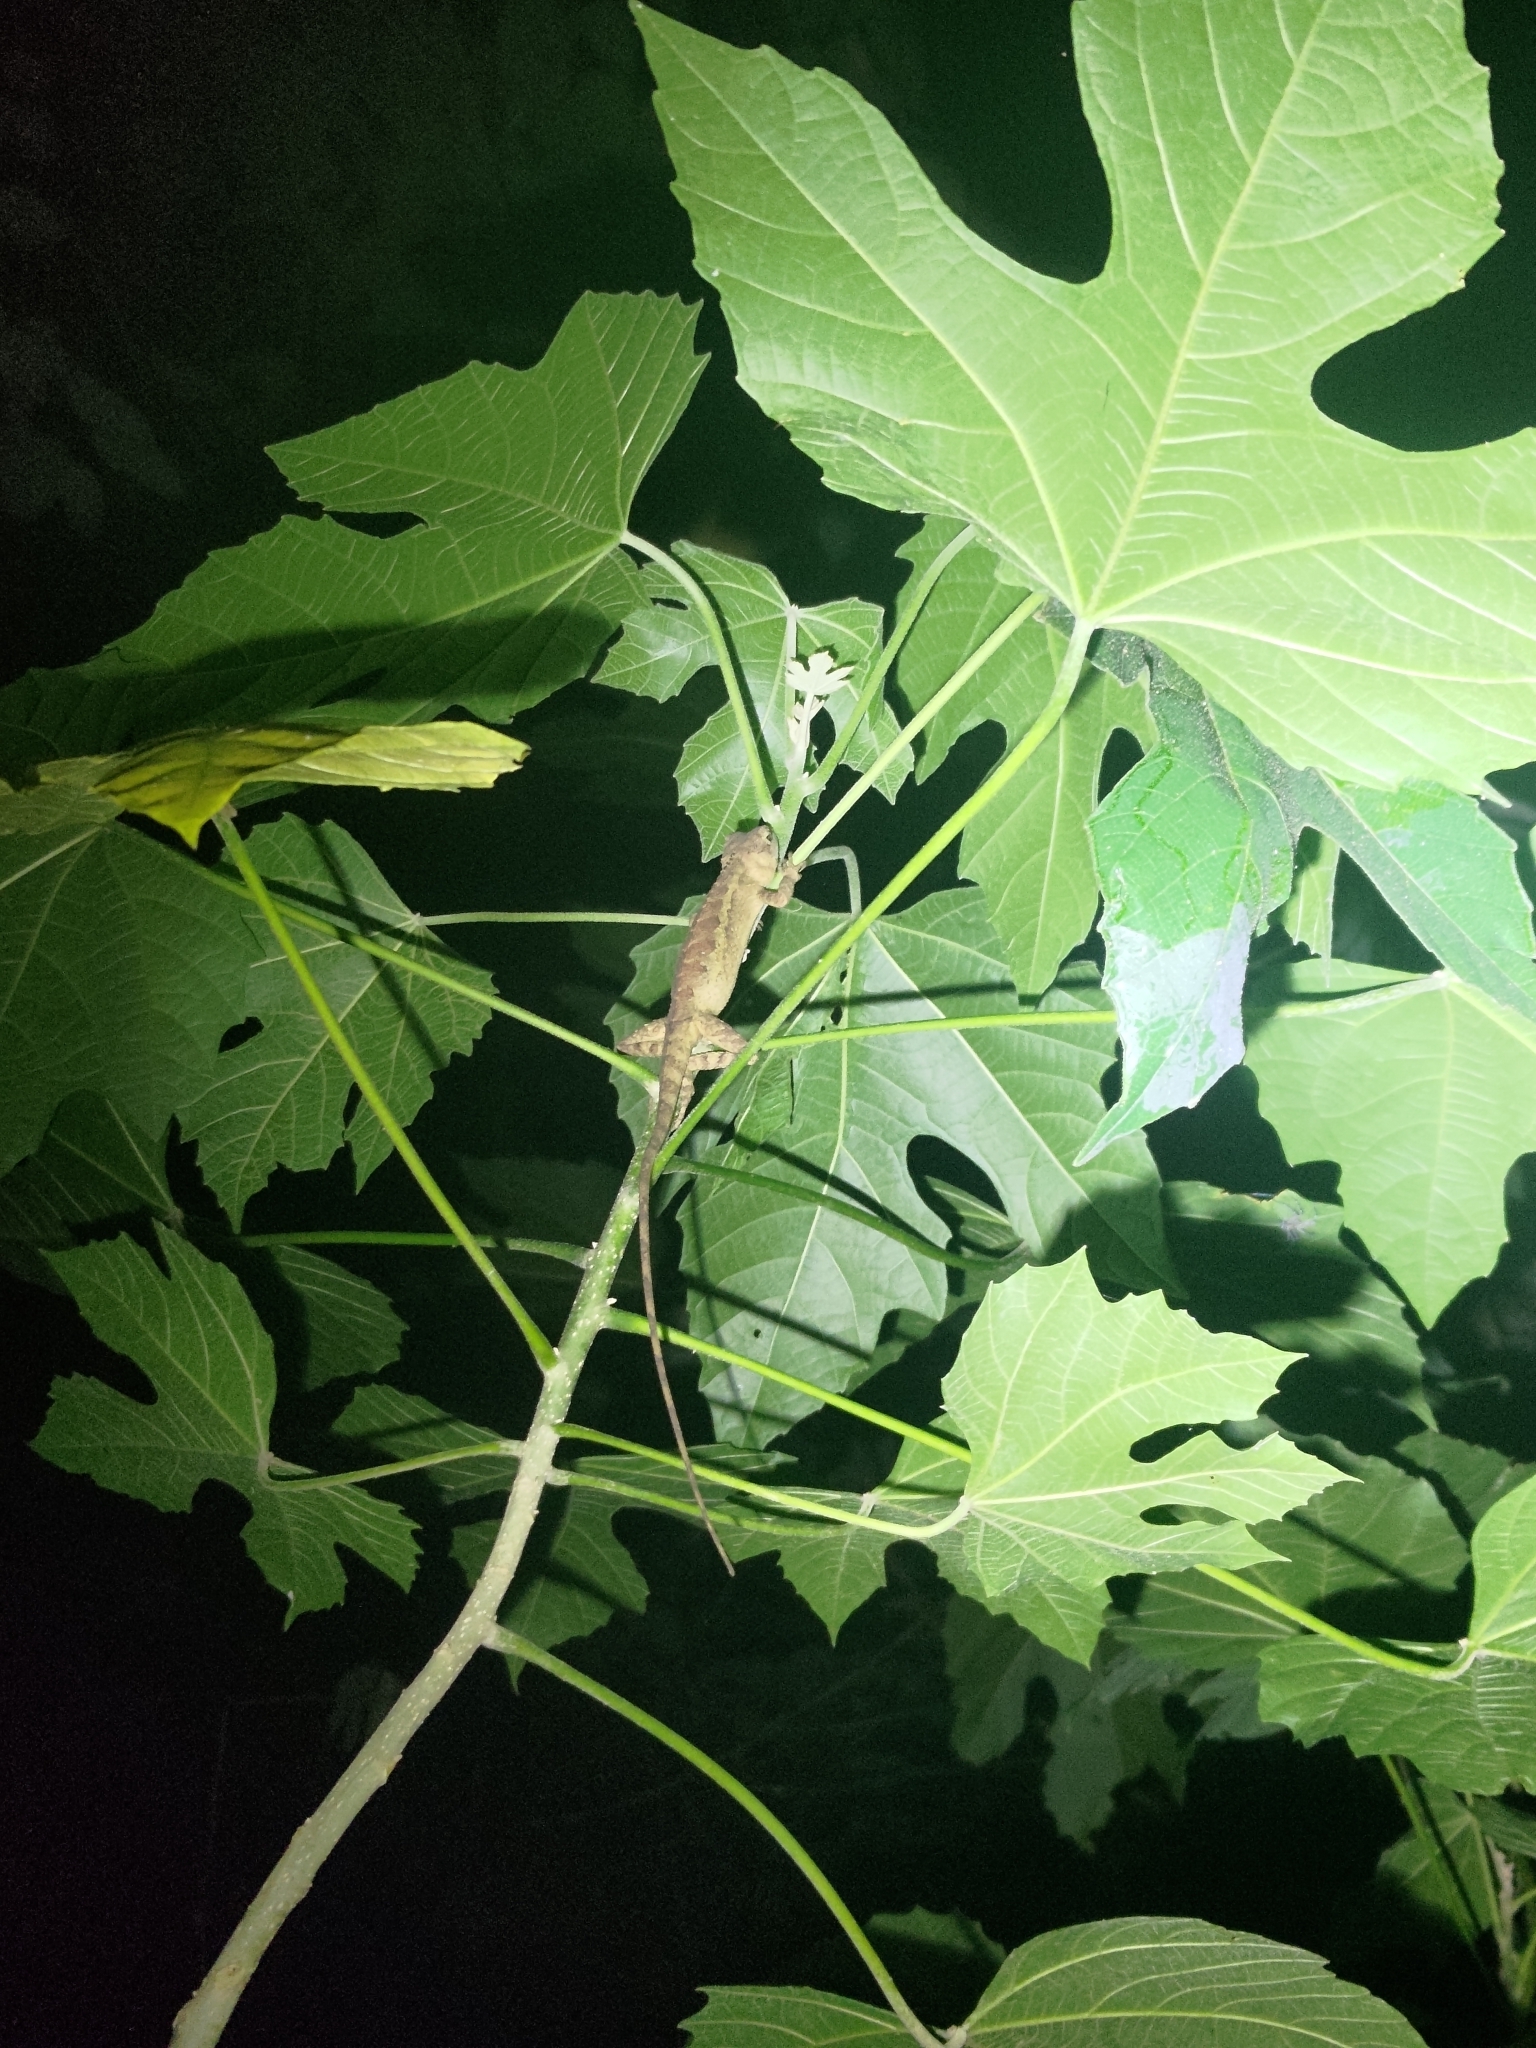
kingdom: Animalia
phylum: Chordata
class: Squamata
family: Agamidae
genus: Diploderma
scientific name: Diploderma swinhonis
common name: Taiwan japalure
